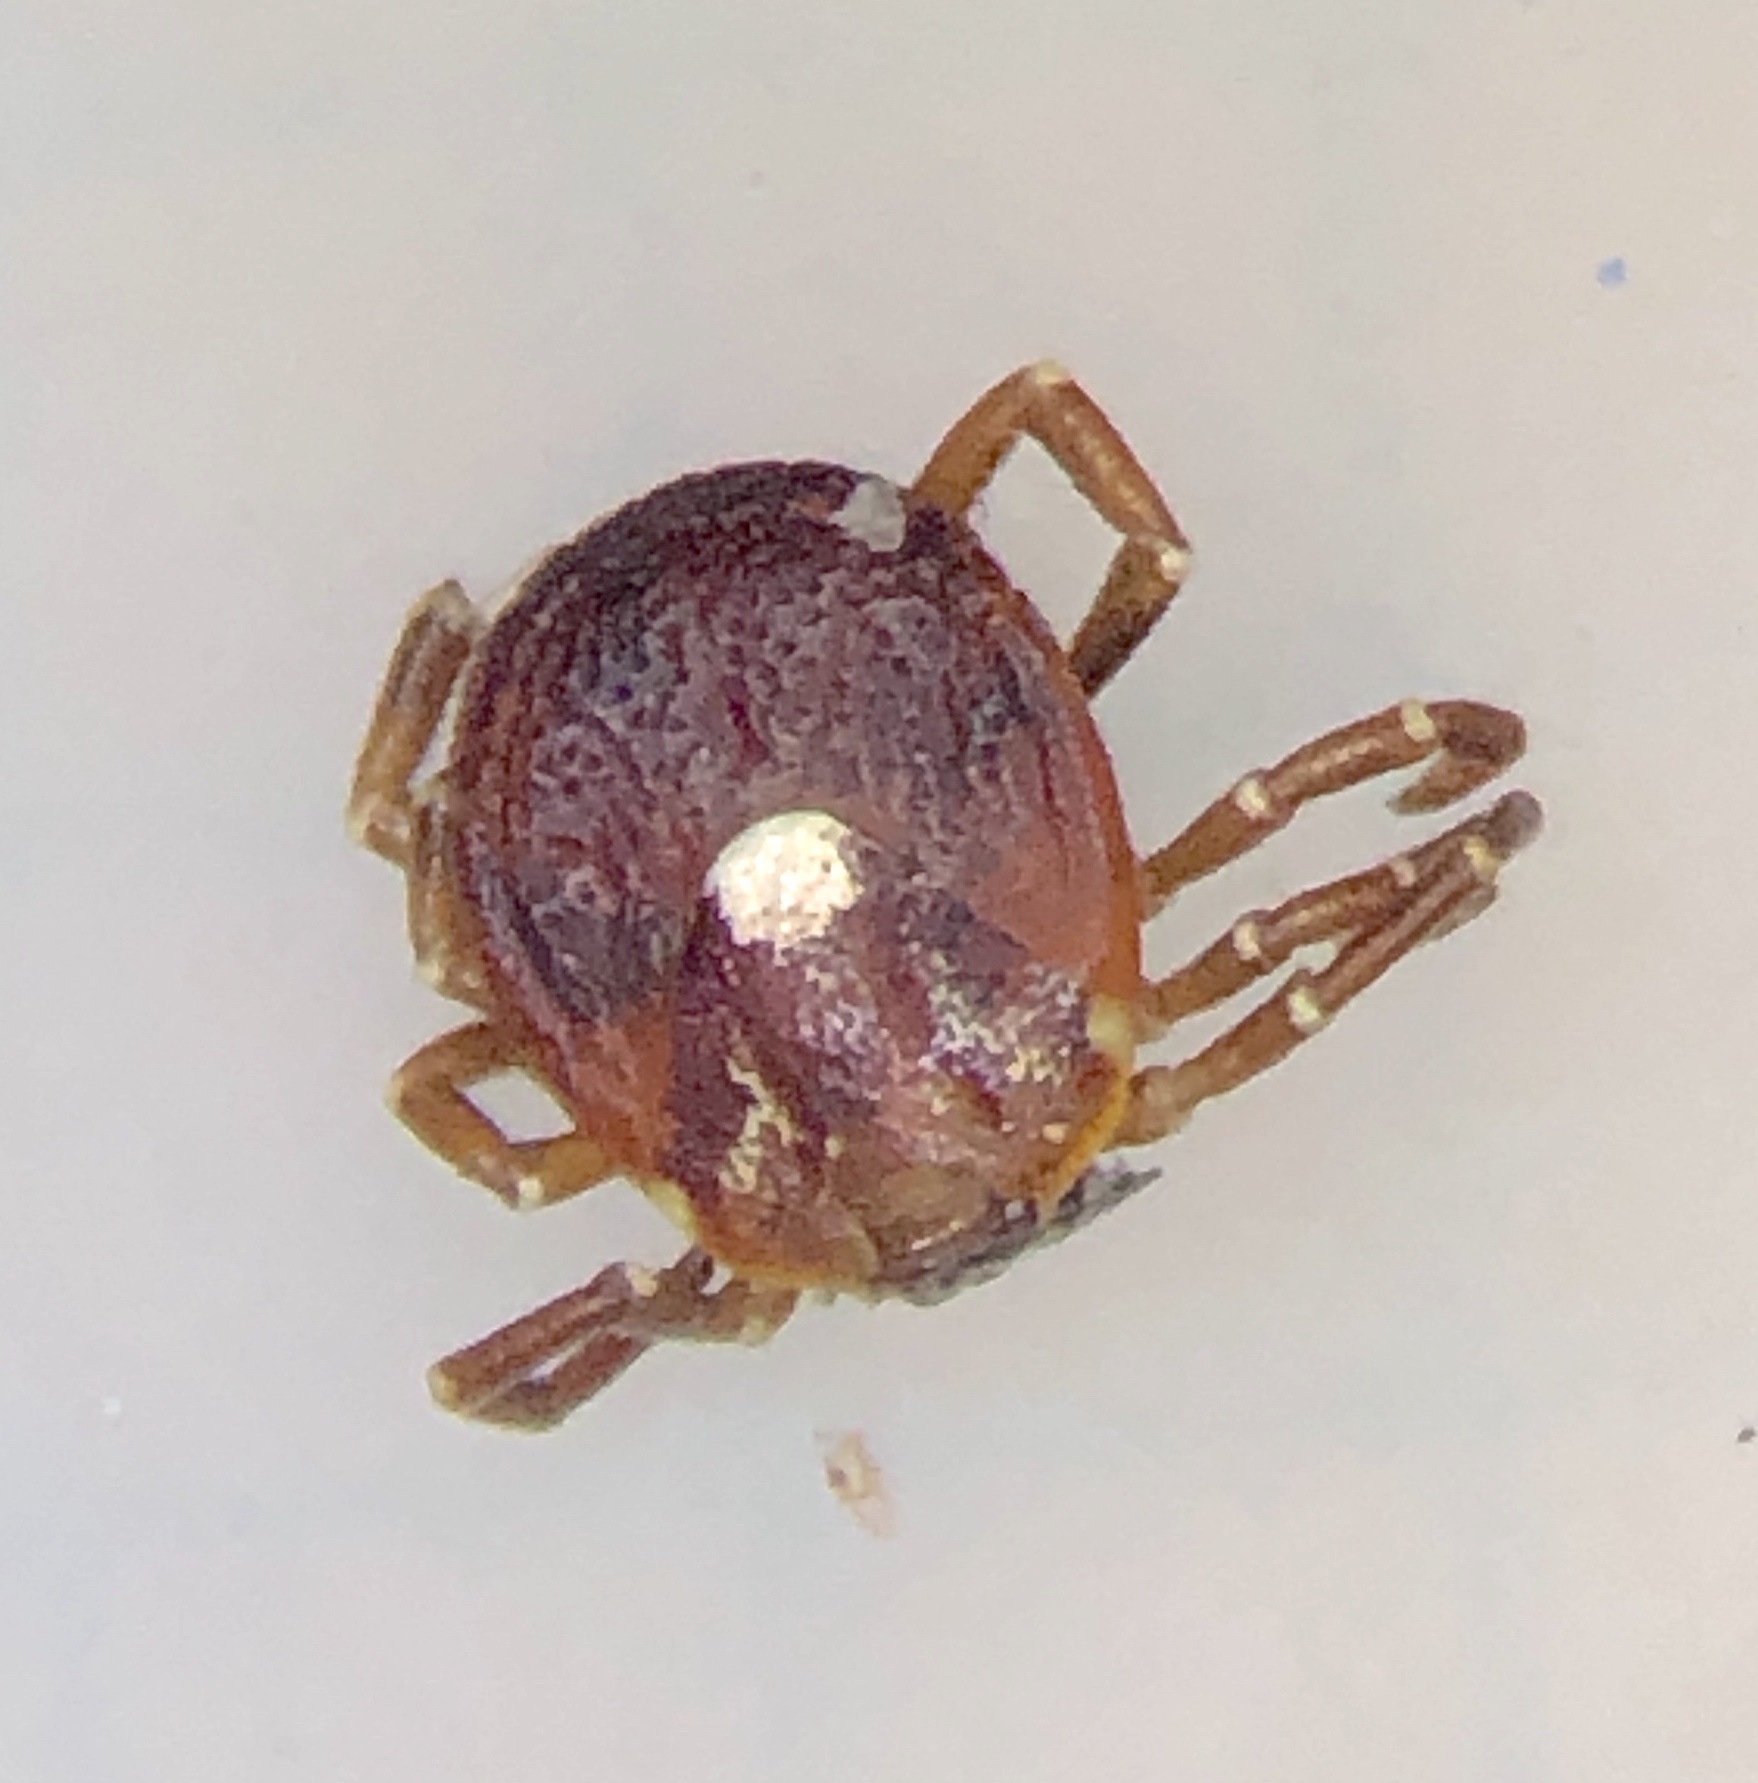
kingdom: Animalia
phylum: Arthropoda
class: Arachnida
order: Ixodida
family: Ixodidae
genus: Amblyomma
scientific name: Amblyomma americanum
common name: Lone star tick
